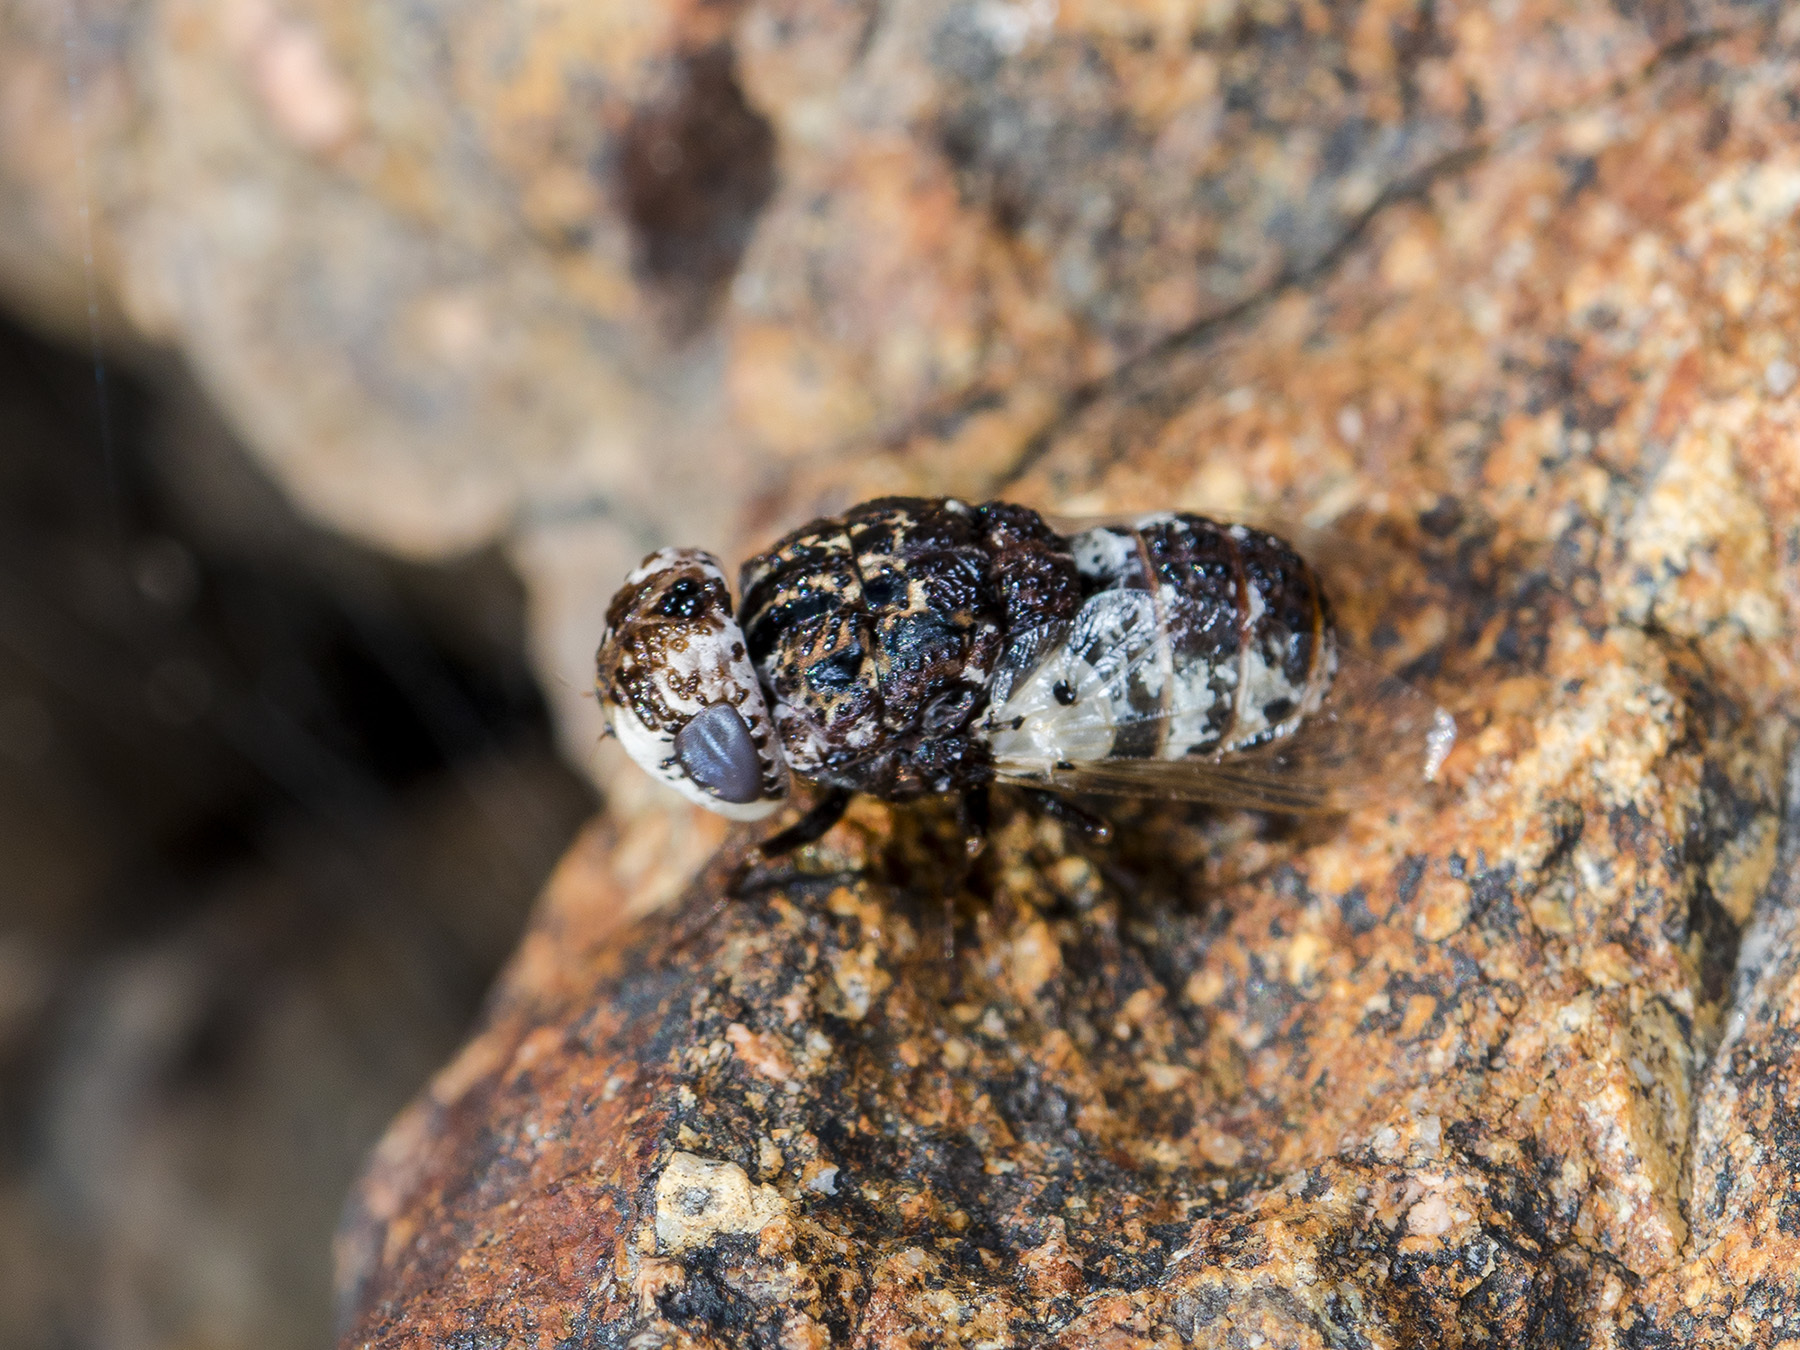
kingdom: Animalia
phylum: Arthropoda
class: Insecta
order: Diptera
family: Oestridae
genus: Oestrus
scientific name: Oestrus ovis
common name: Sheep botfly
